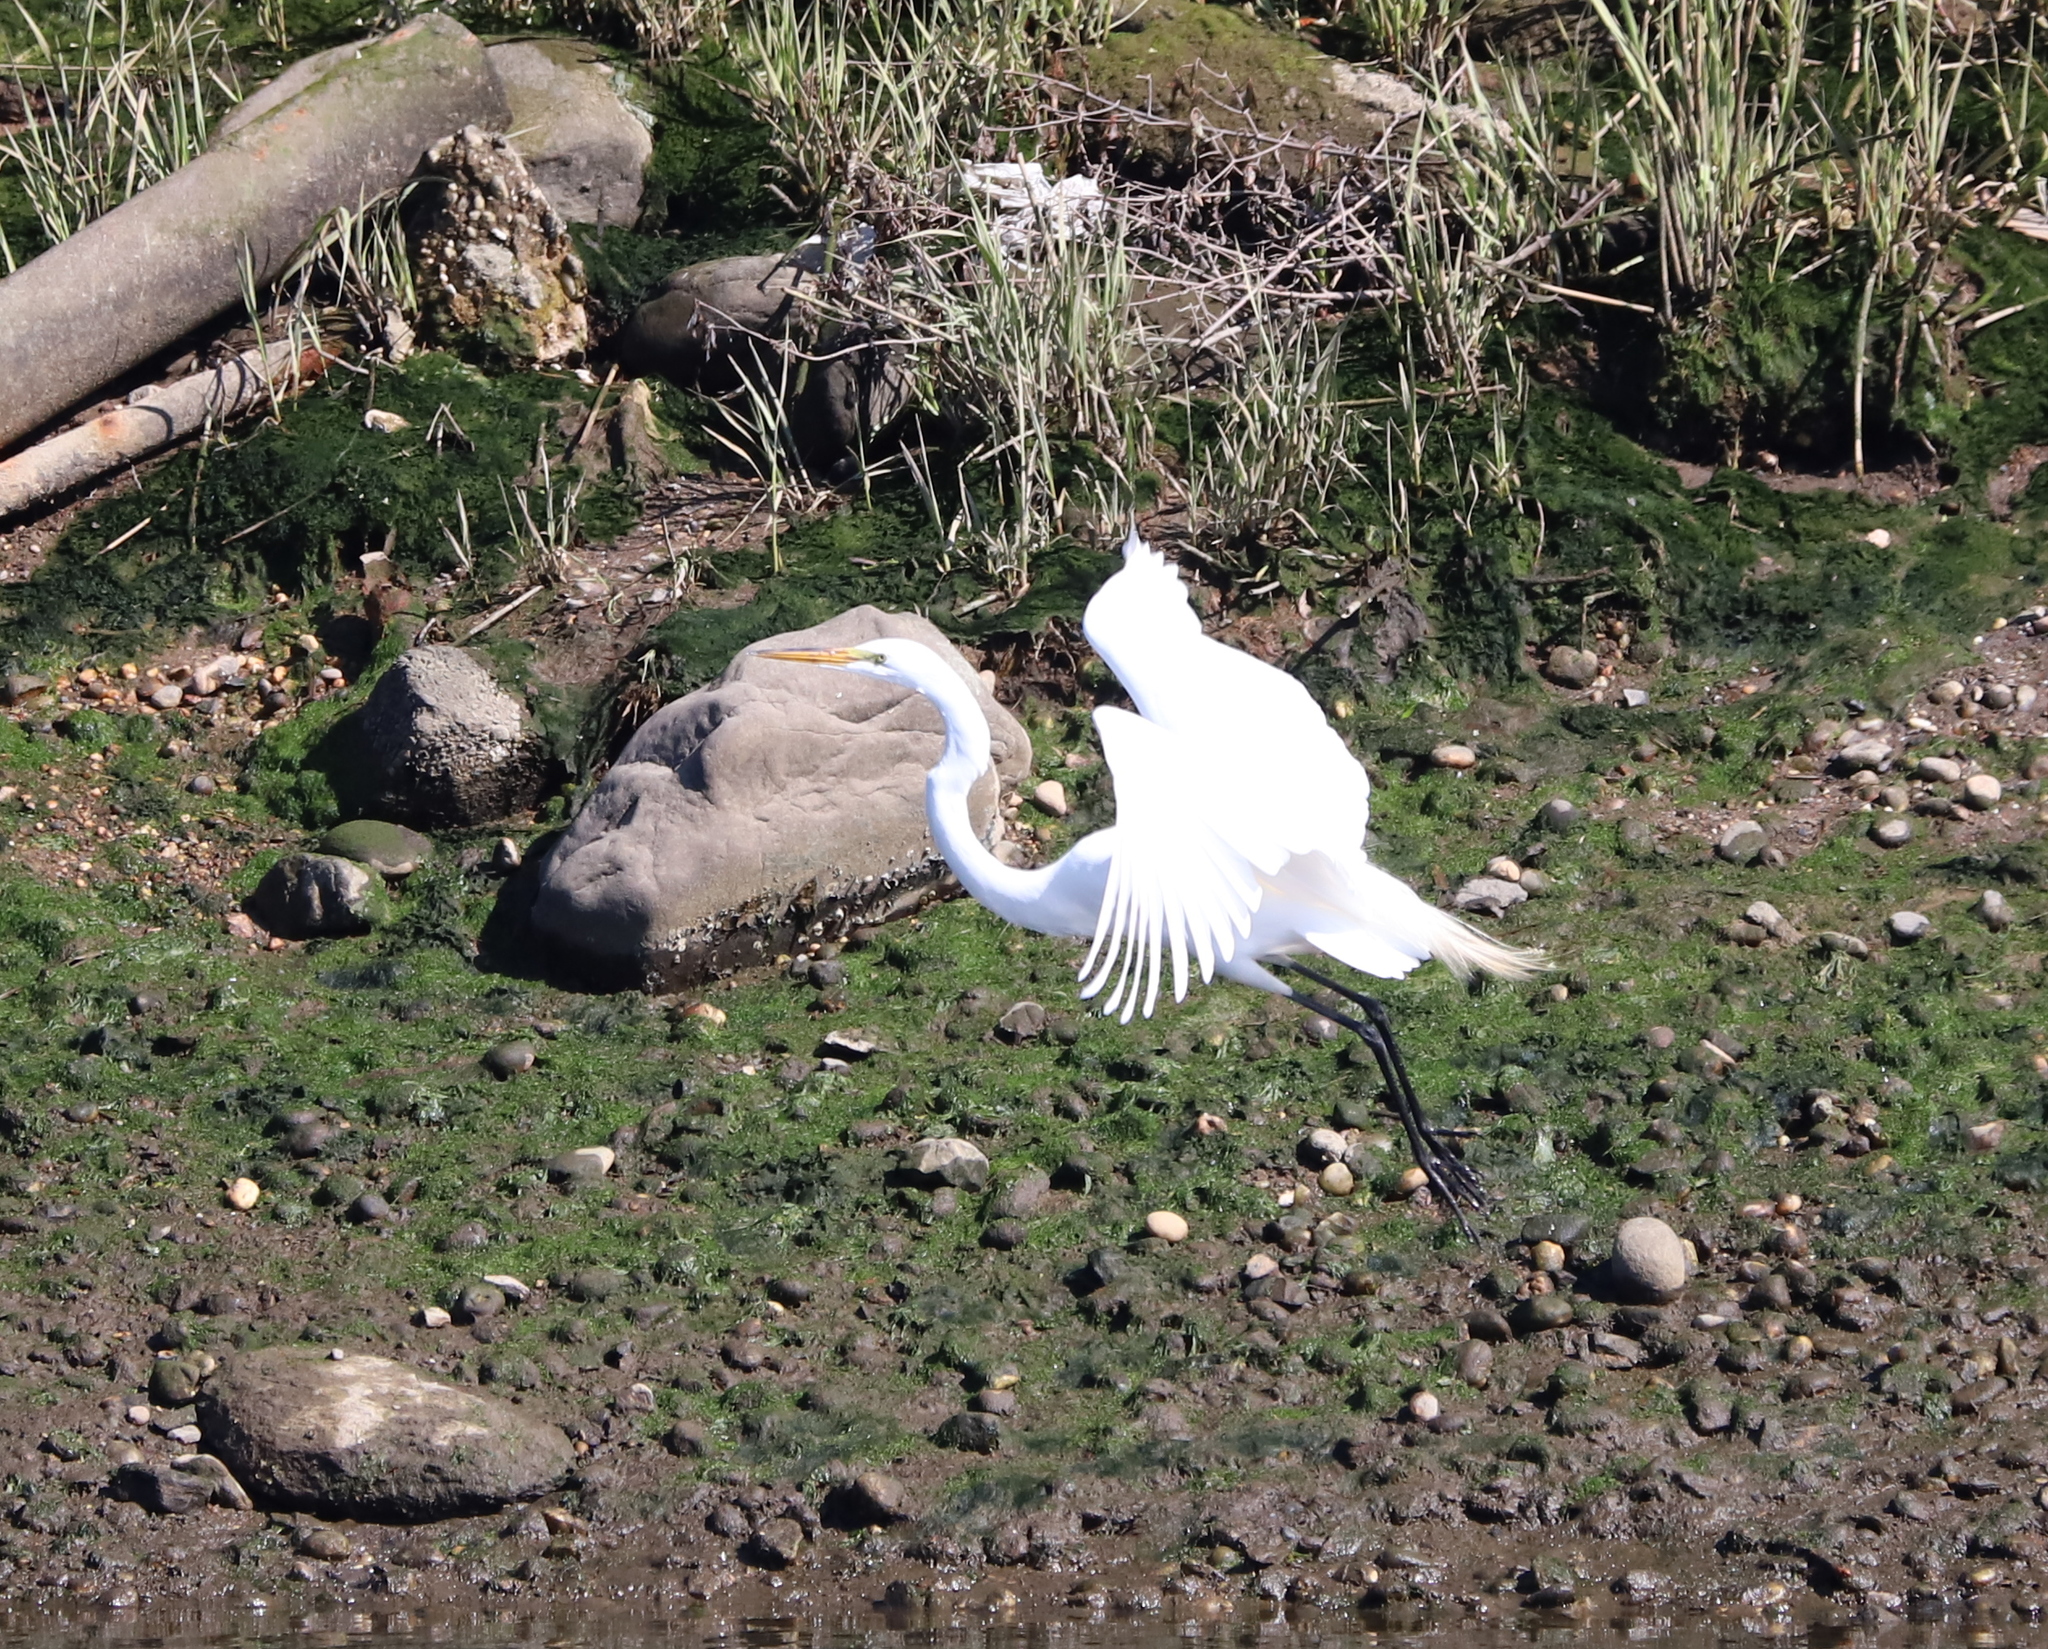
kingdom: Animalia
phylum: Chordata
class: Aves
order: Pelecaniformes
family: Ardeidae
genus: Ardea
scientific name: Ardea alba
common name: Great egret
